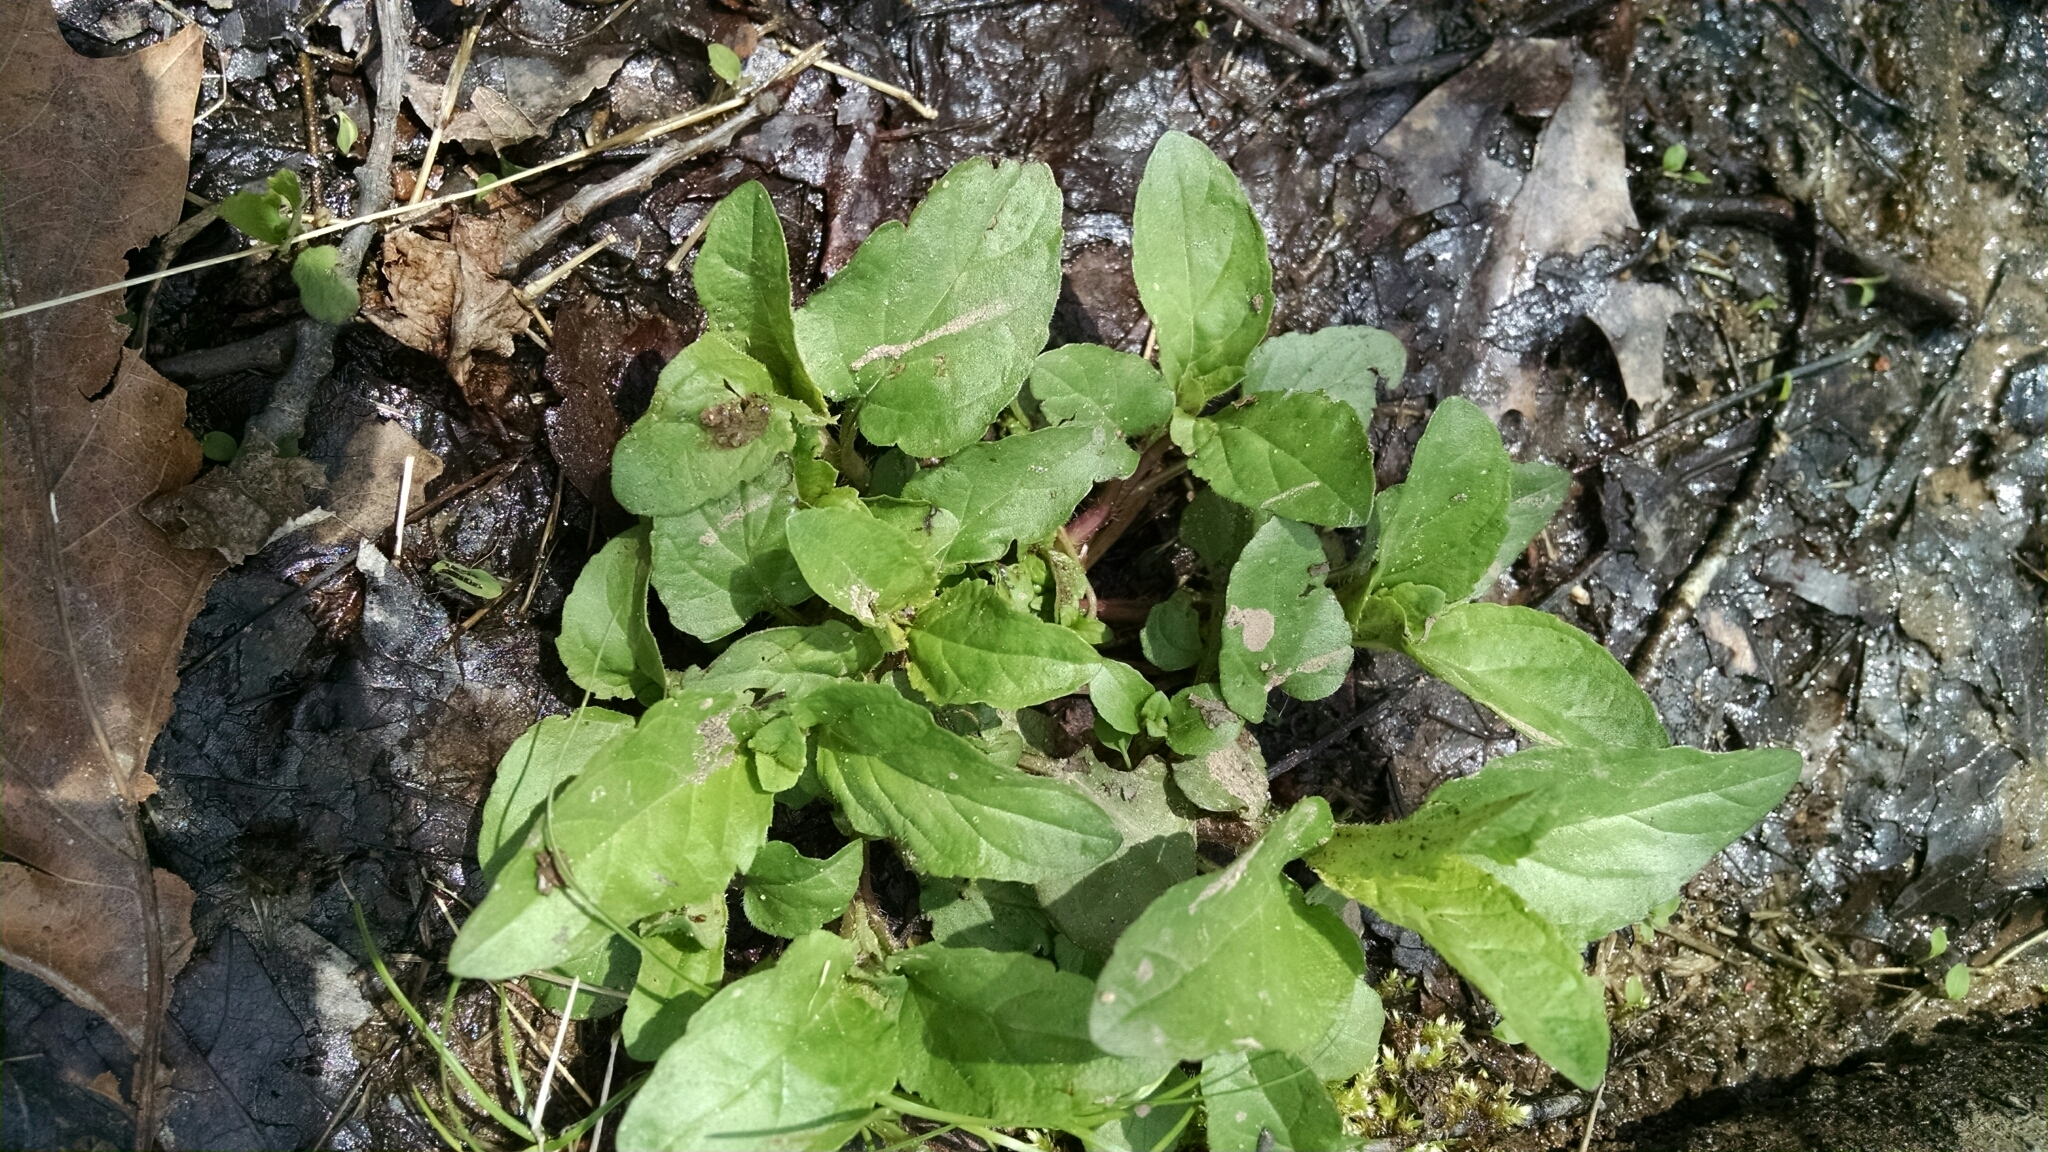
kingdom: Plantae
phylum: Tracheophyta
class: Magnoliopsida
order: Lamiales
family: Lamiaceae
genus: Prunella
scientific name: Prunella vulgaris
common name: Heal-all
